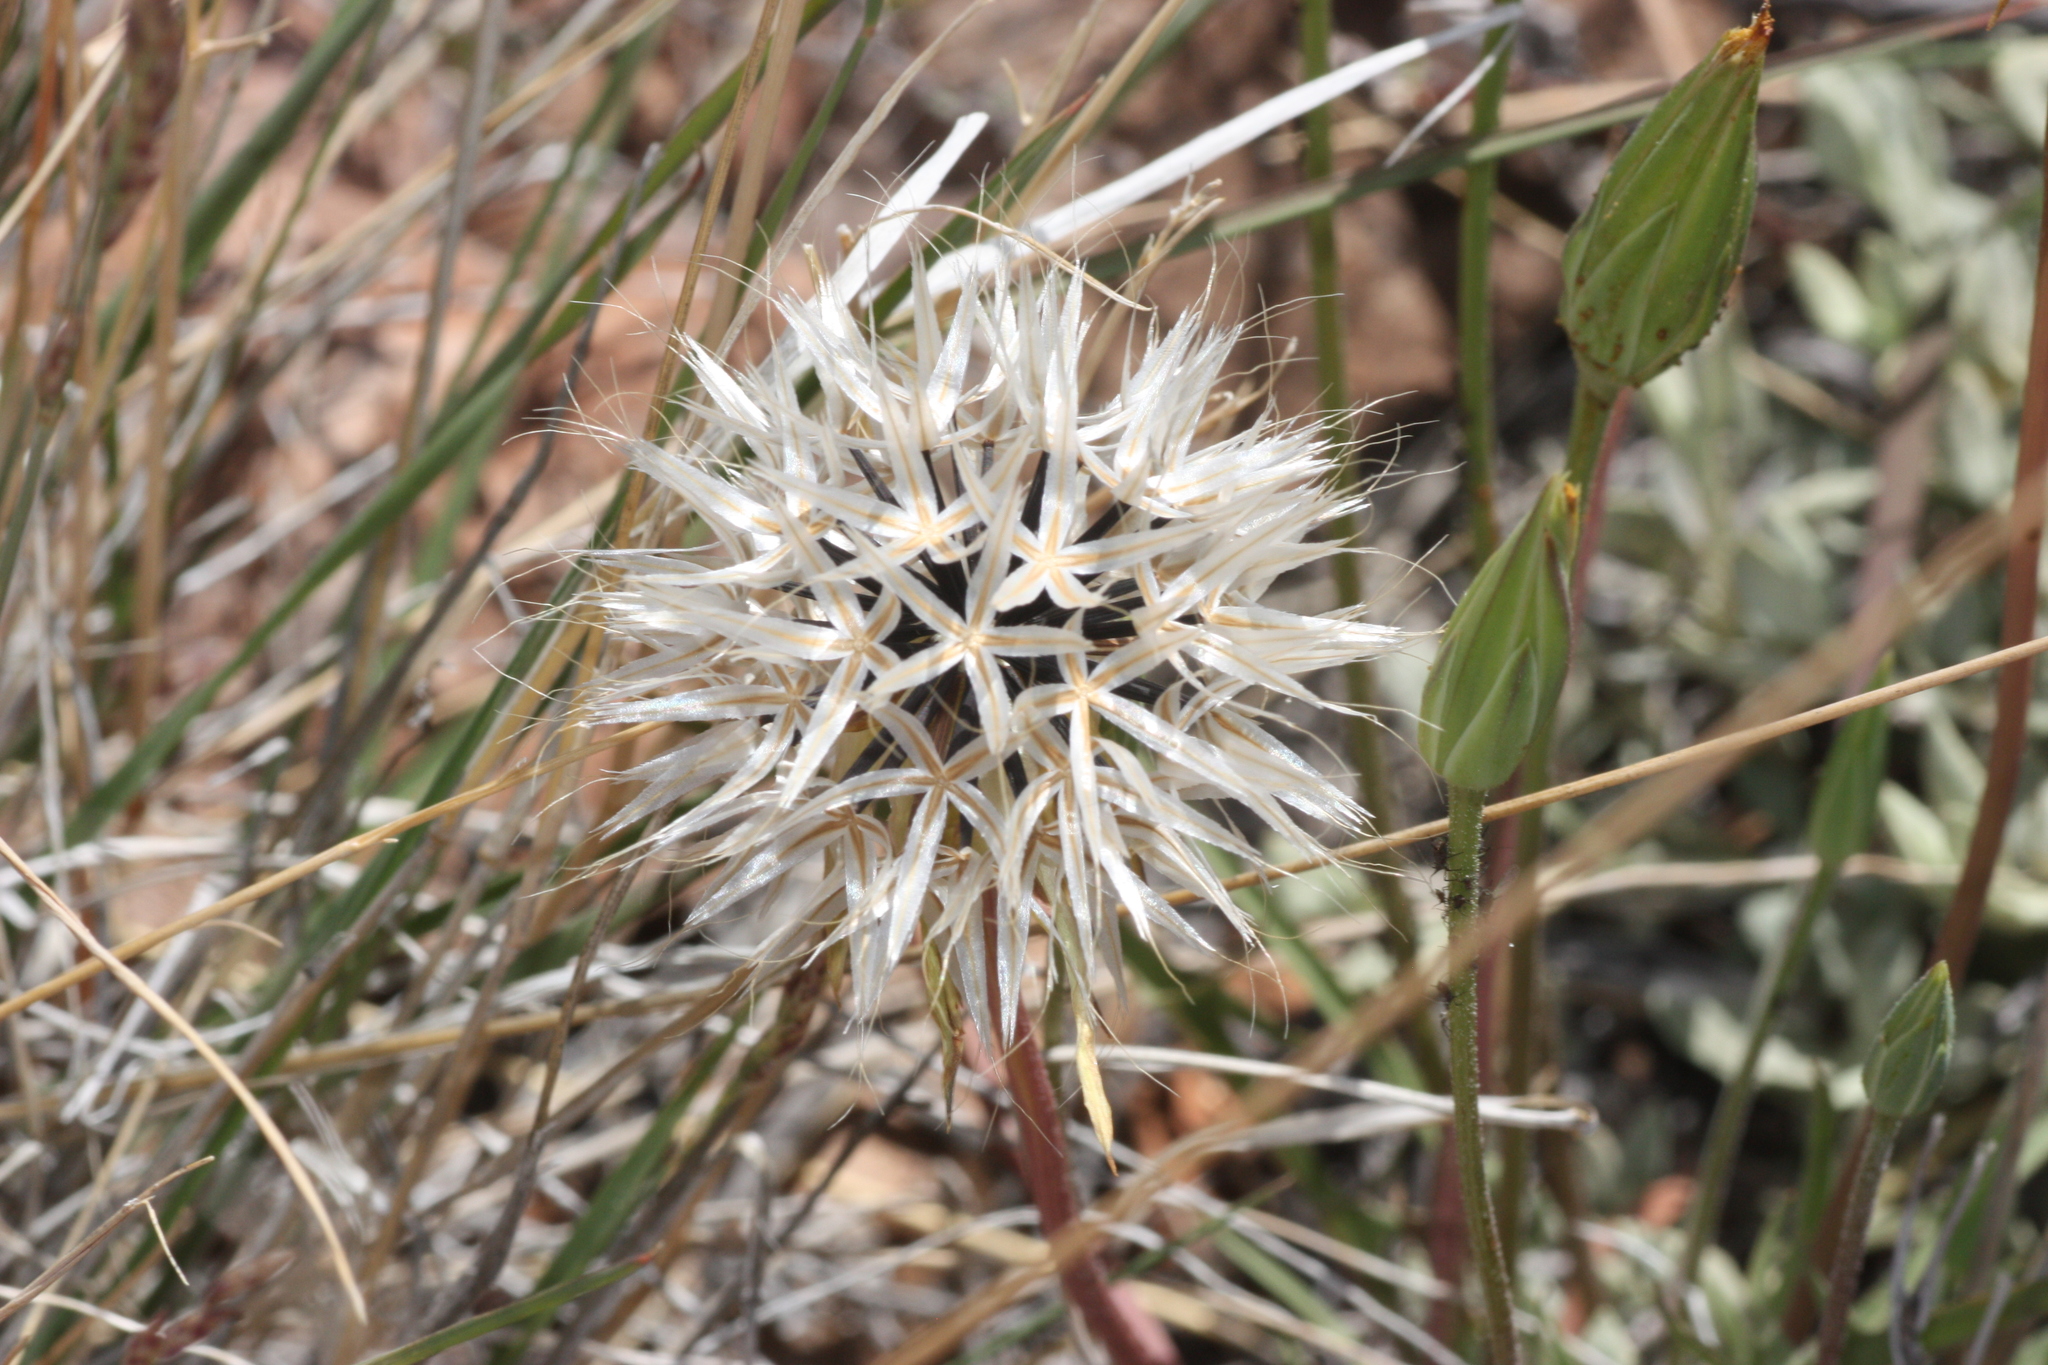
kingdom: Plantae
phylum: Tracheophyta
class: Magnoliopsida
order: Asterales
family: Asteraceae
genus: Microseris
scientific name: Microseris lindleyi
